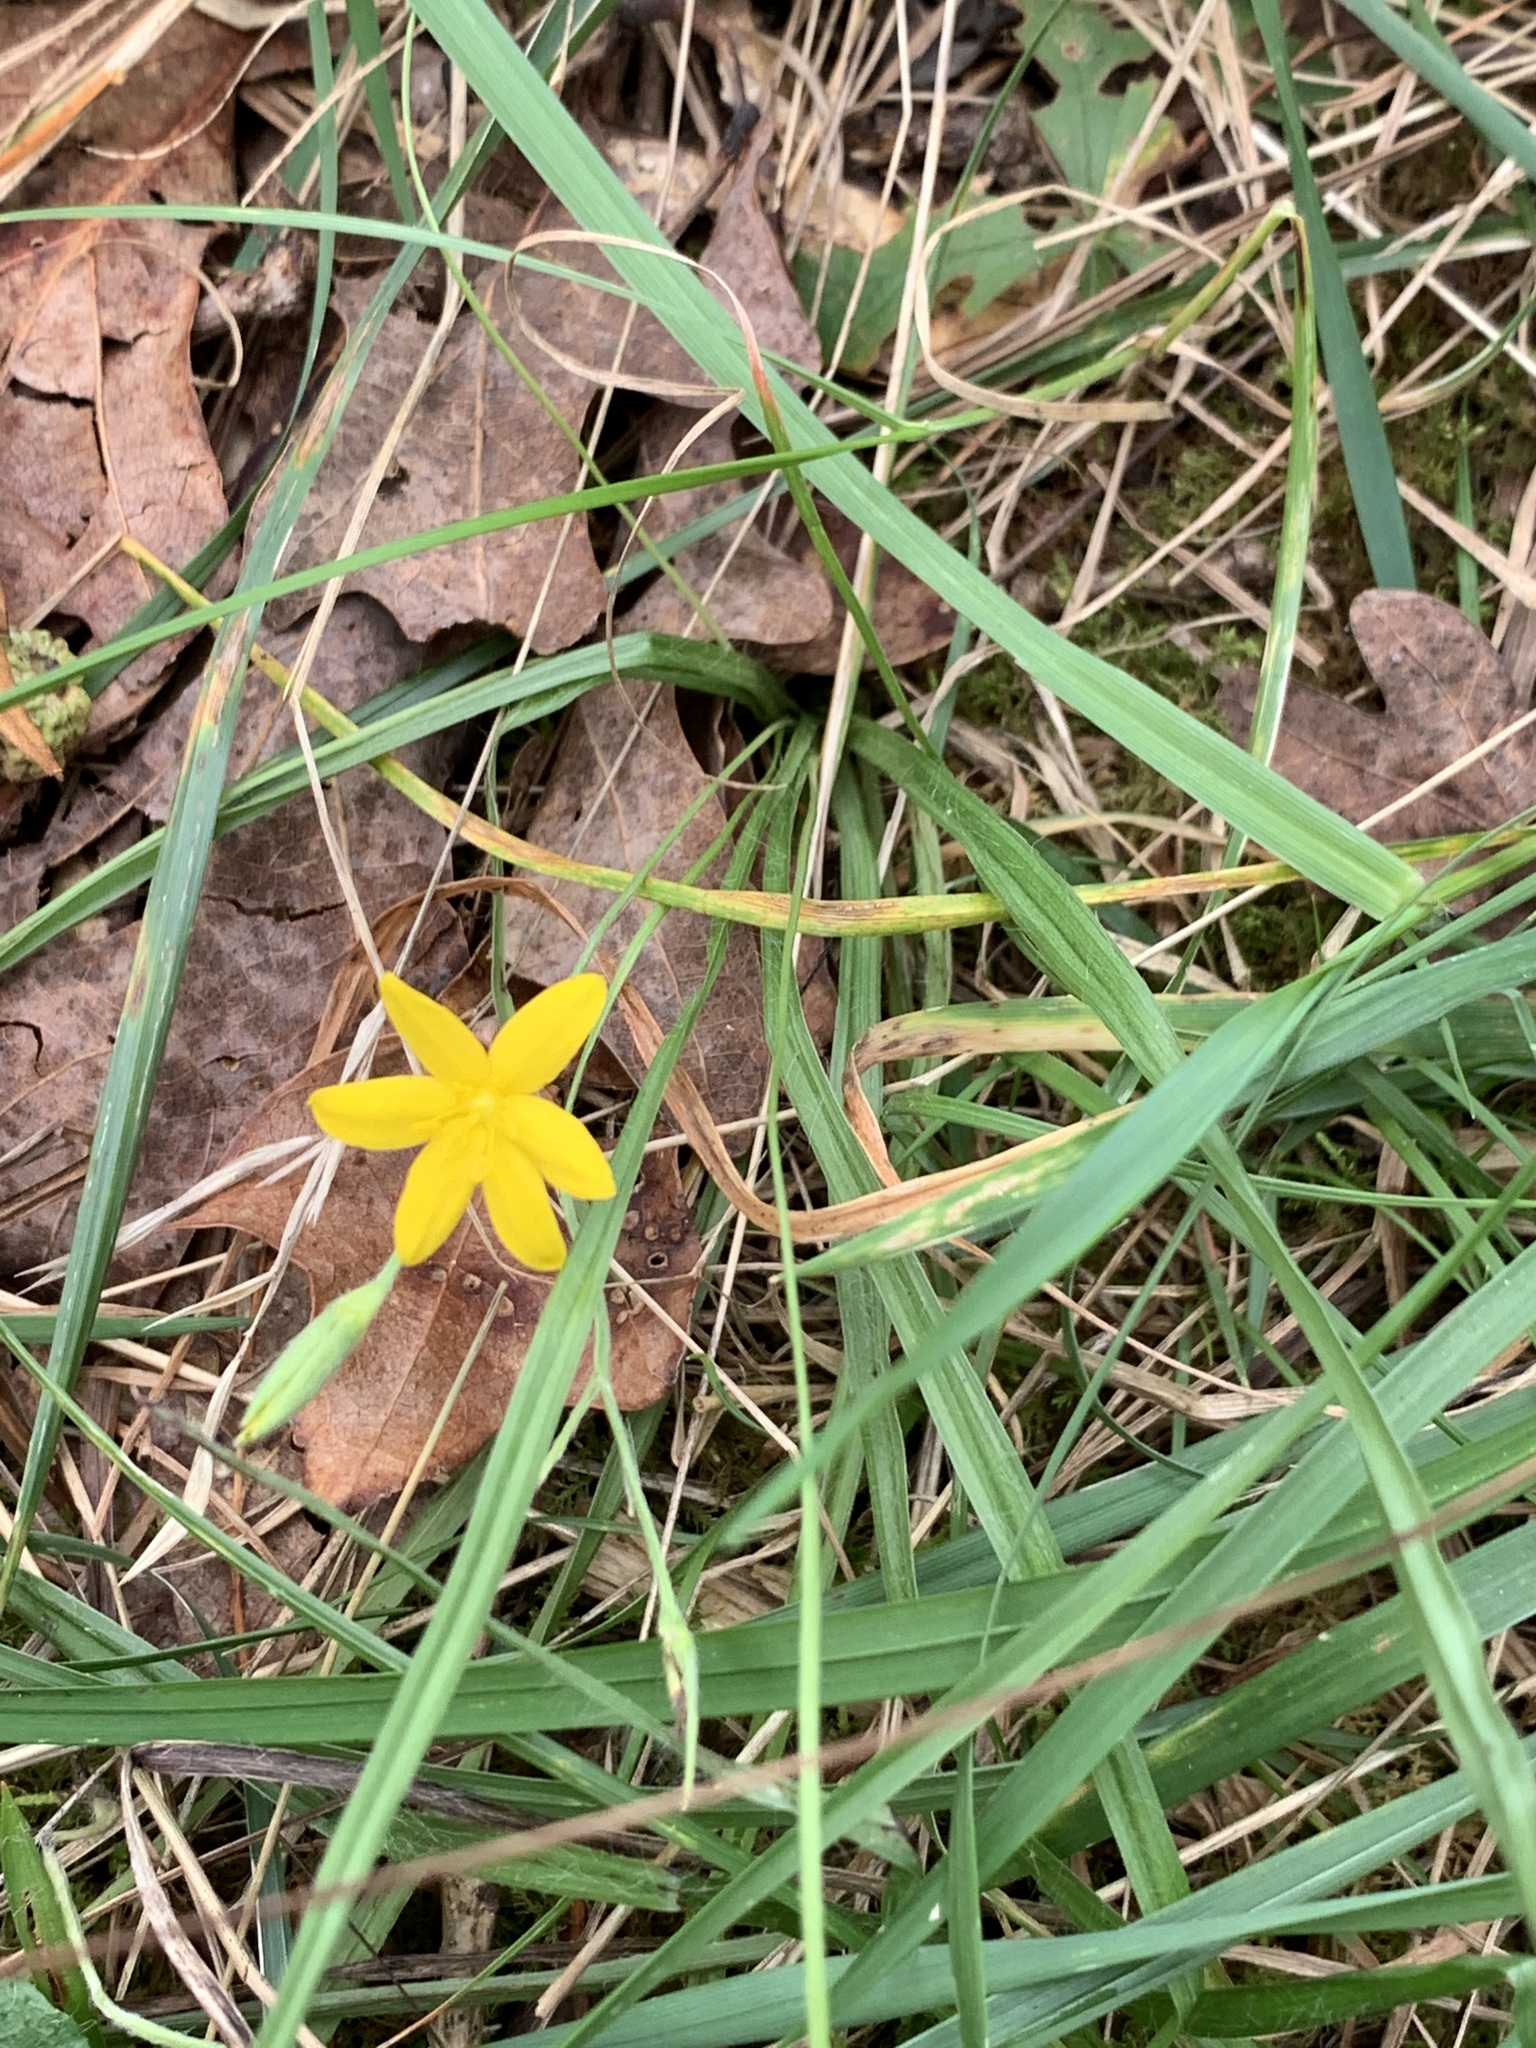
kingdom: Plantae
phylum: Tracheophyta
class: Liliopsida
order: Asparagales
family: Hypoxidaceae
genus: Hypoxis
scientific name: Hypoxis hirsuta
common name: Common goldstar
